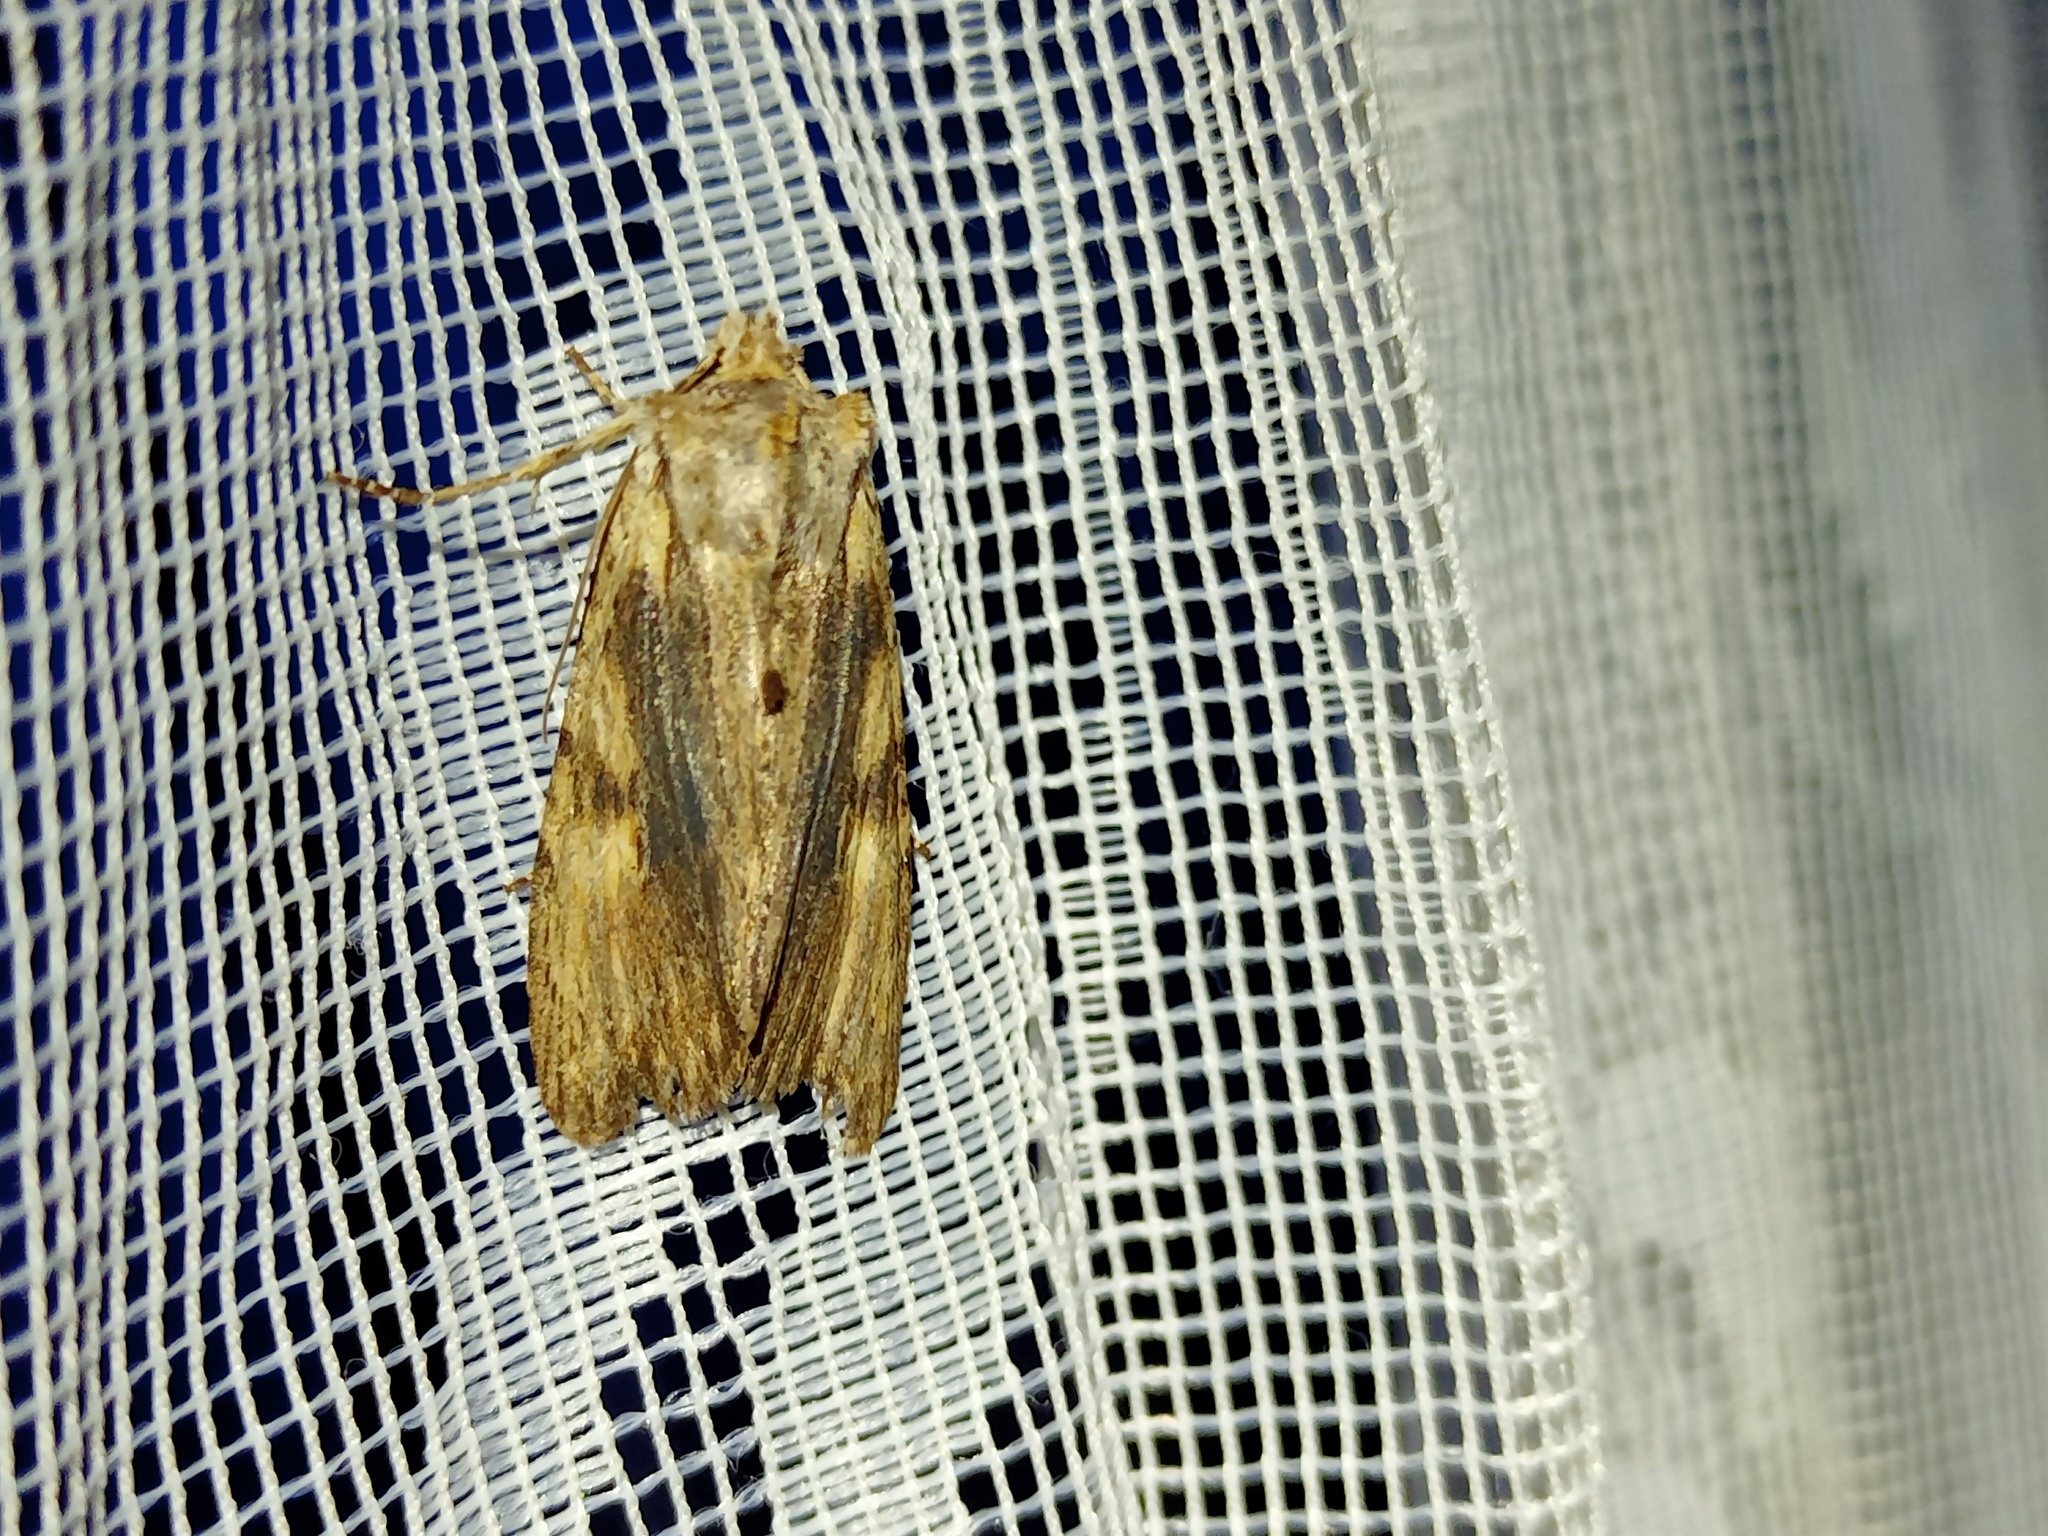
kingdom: Animalia
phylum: Arthropoda
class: Insecta
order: Lepidoptera
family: Noctuidae
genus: Lithophane
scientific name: Lithophane socia
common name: Pale pinion
